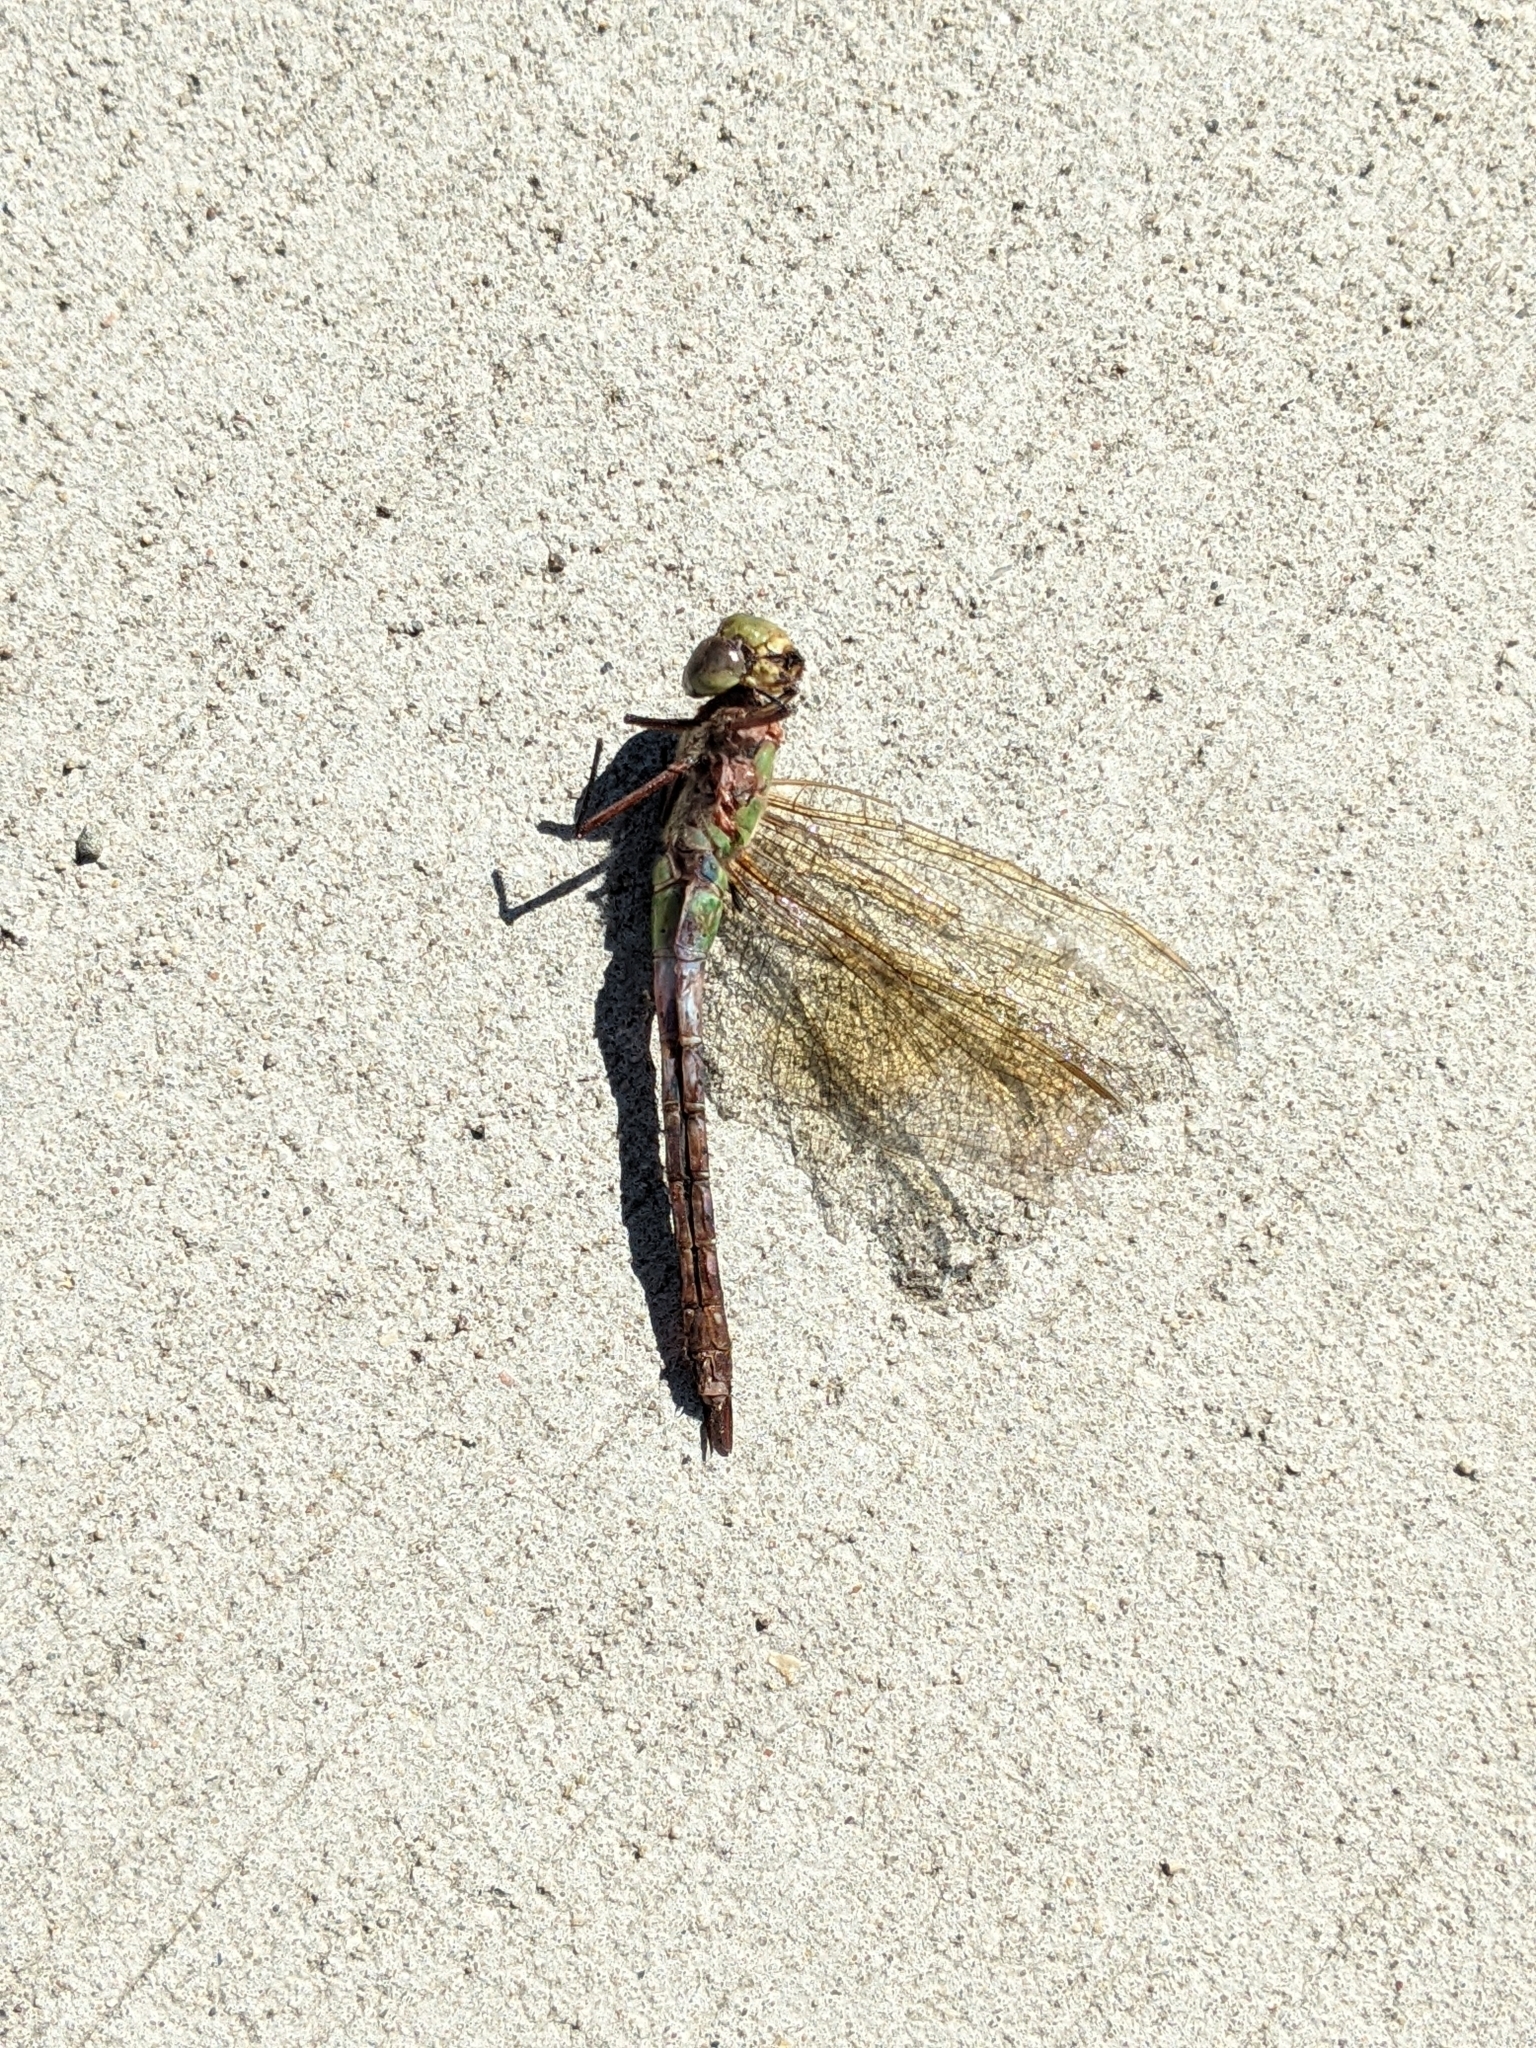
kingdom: Animalia
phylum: Arthropoda
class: Insecta
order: Odonata
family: Aeshnidae
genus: Anax
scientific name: Anax junius
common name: Common green darner
